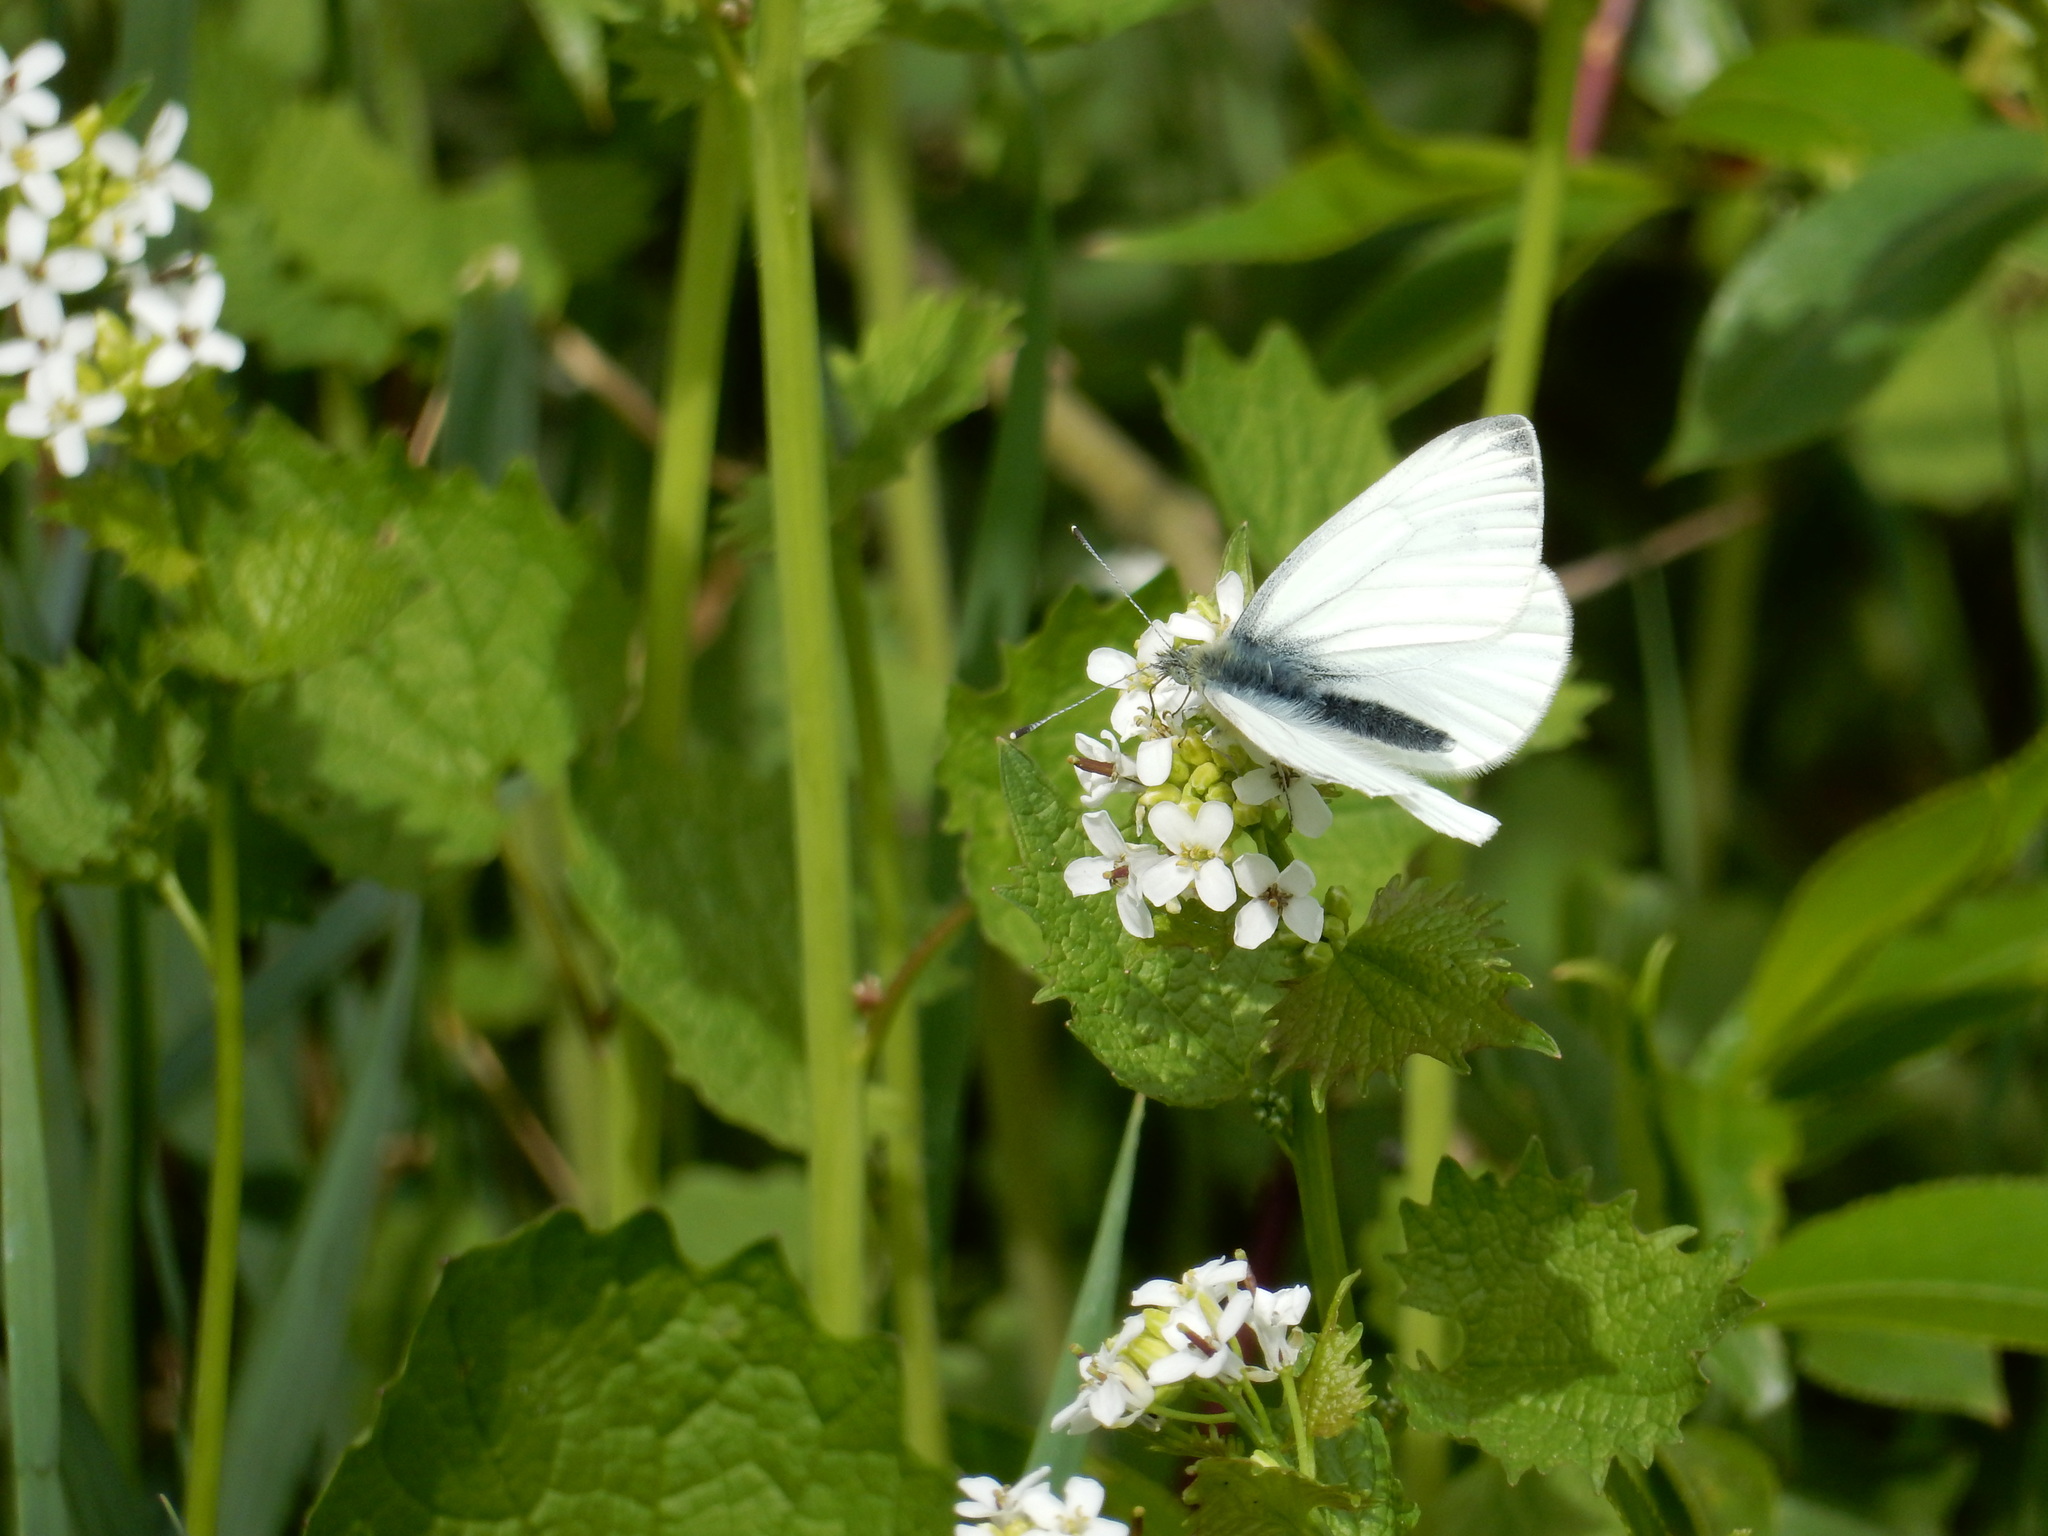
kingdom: Animalia
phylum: Arthropoda
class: Insecta
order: Lepidoptera
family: Pieridae
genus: Pieris
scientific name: Pieris napi
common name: Green-veined white
